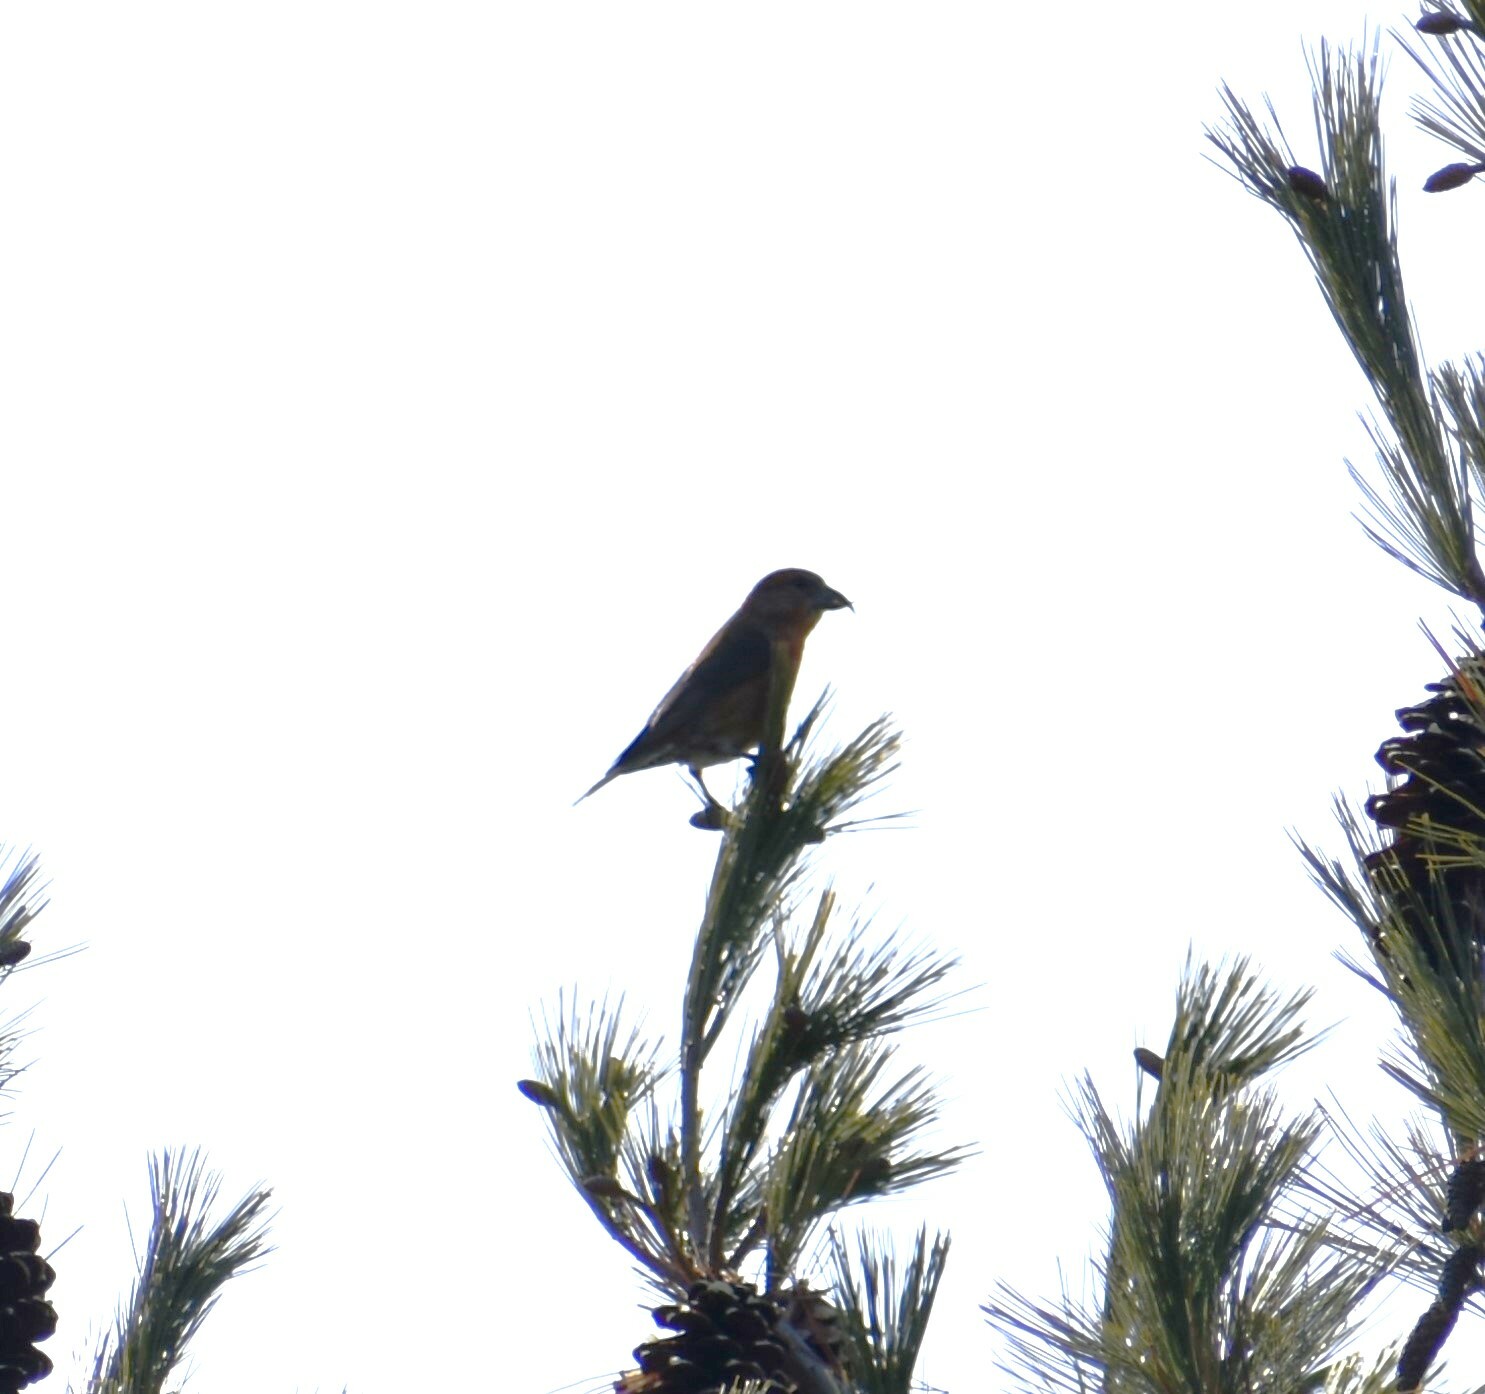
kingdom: Animalia
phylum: Chordata
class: Aves
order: Passeriformes
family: Fringillidae
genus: Loxia
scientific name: Loxia curvirostra
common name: Red crossbill
